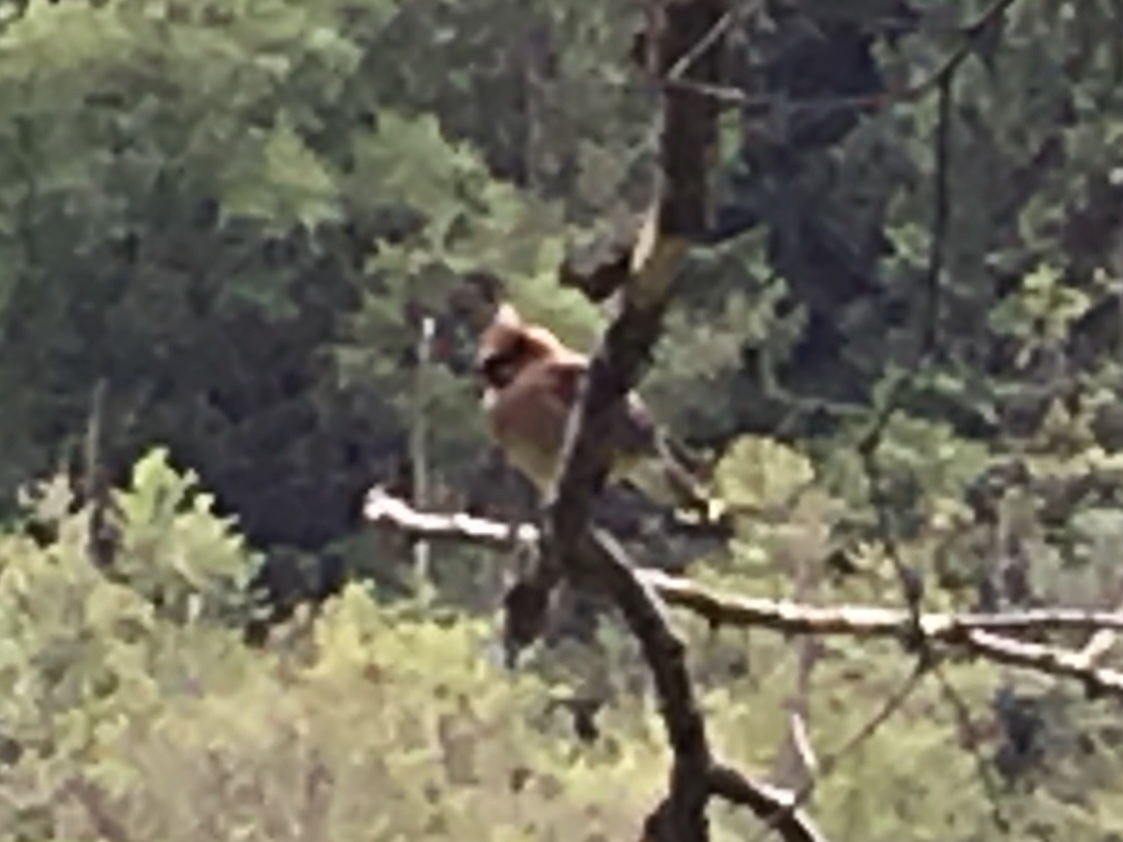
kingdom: Animalia
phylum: Chordata
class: Aves
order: Passeriformes
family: Bombycillidae
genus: Bombycilla
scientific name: Bombycilla cedrorum
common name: Cedar waxwing
